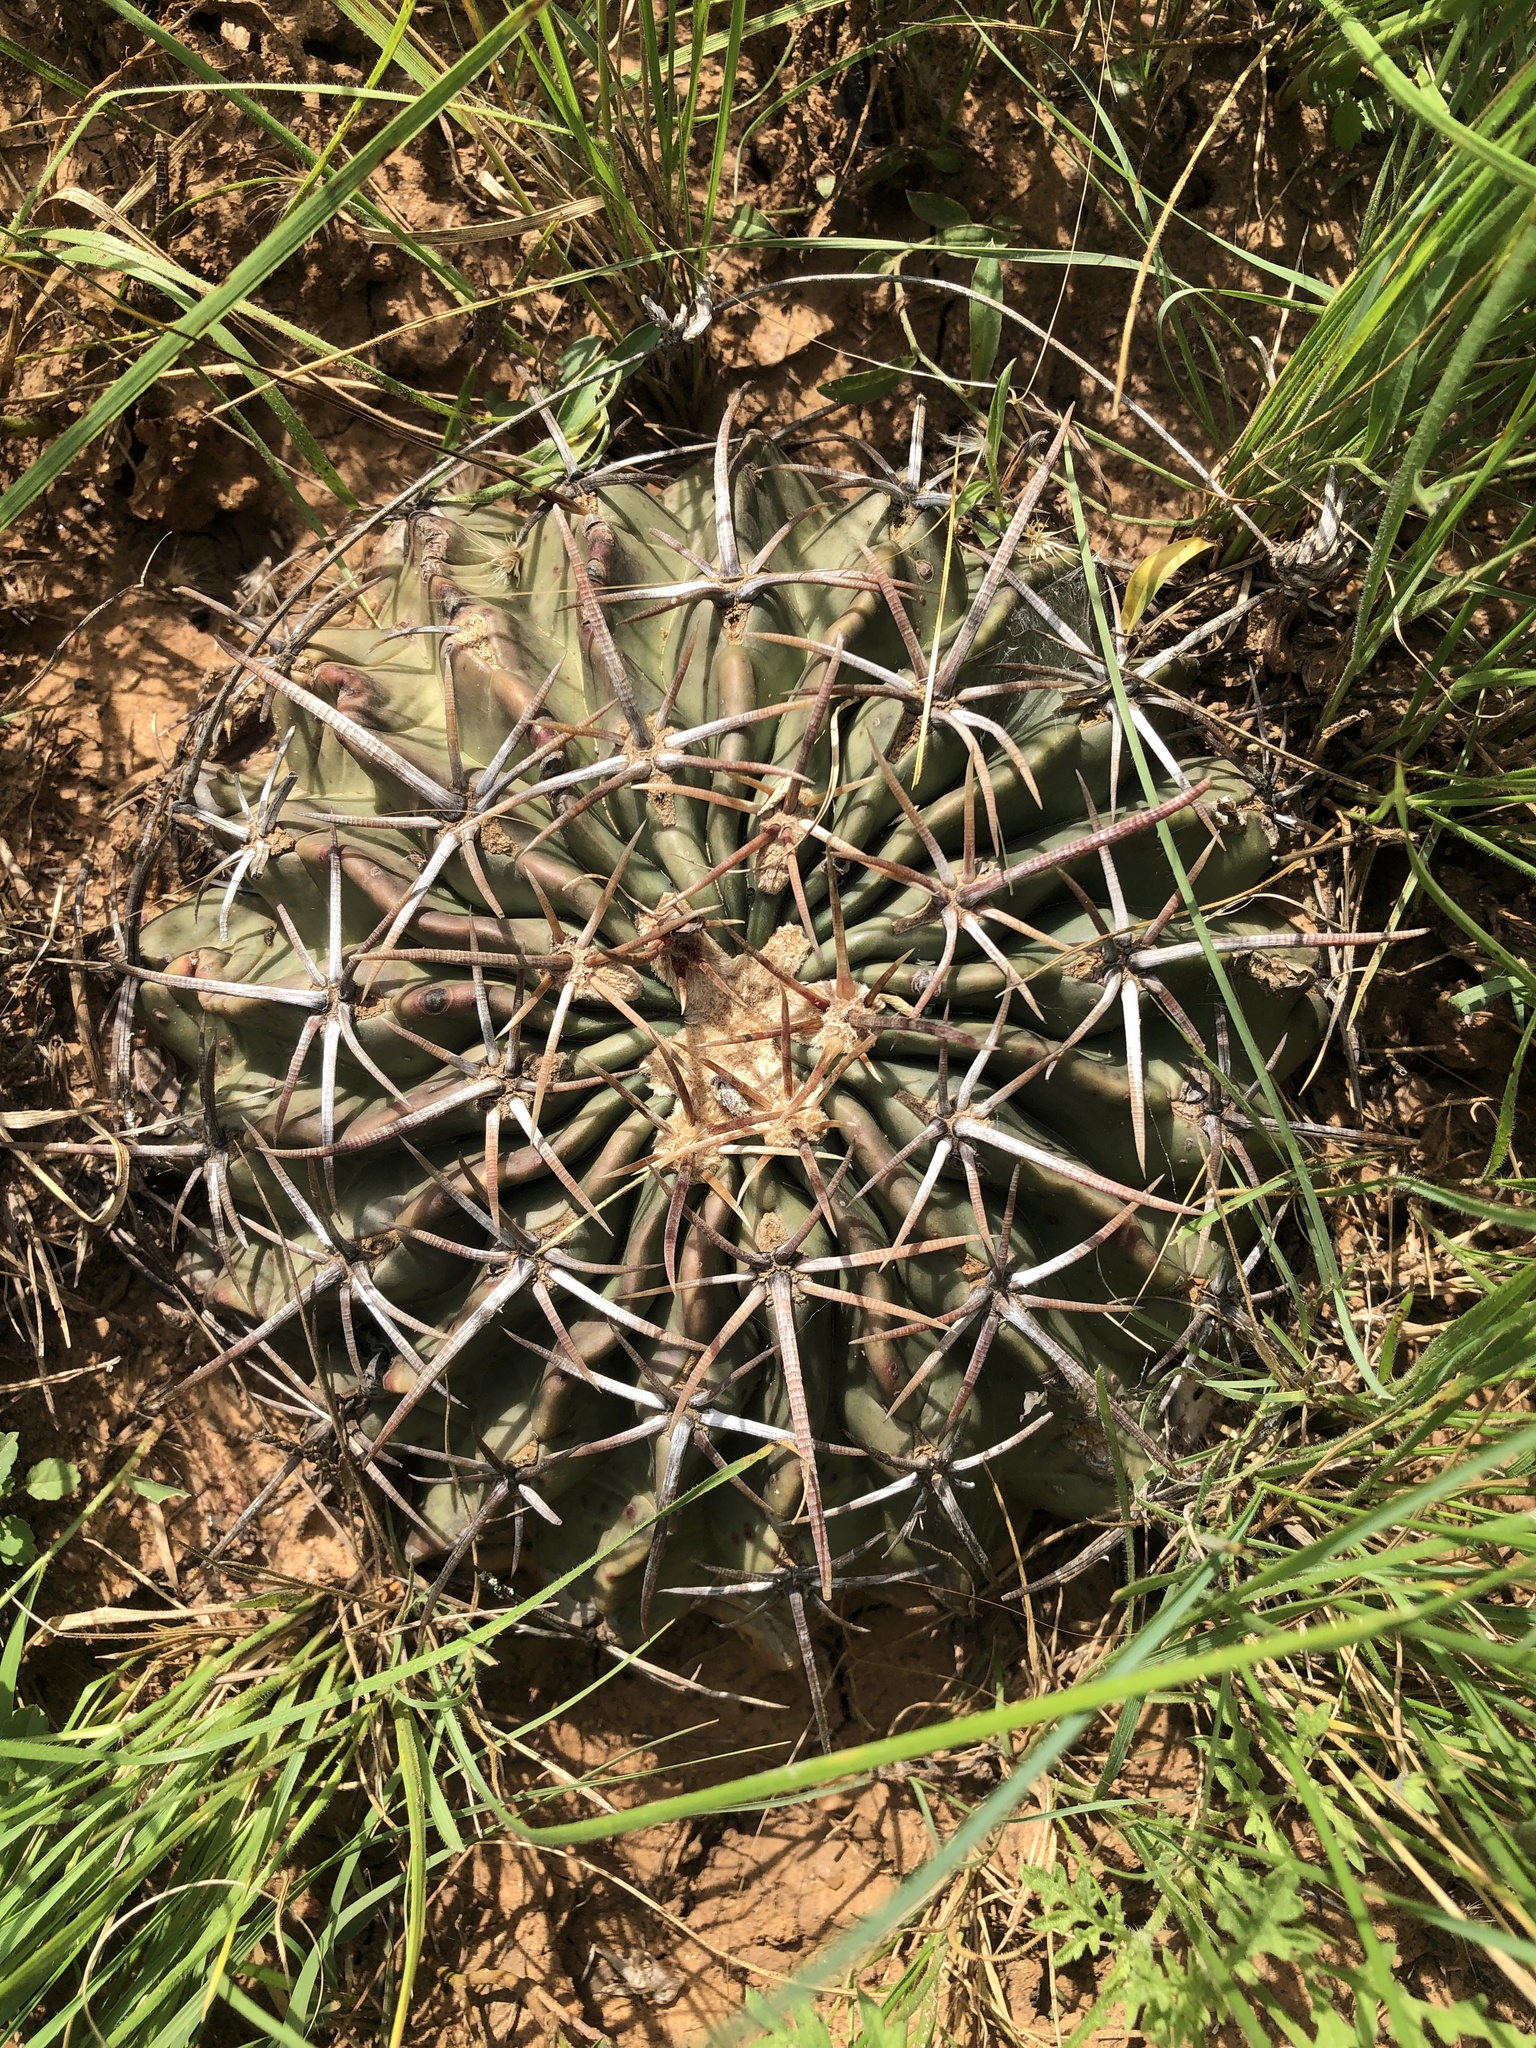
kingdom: Plantae
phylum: Tracheophyta
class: Magnoliopsida
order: Caryophyllales
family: Cactaceae
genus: Echinocactus
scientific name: Echinocactus texensis
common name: Devil's pincushion
